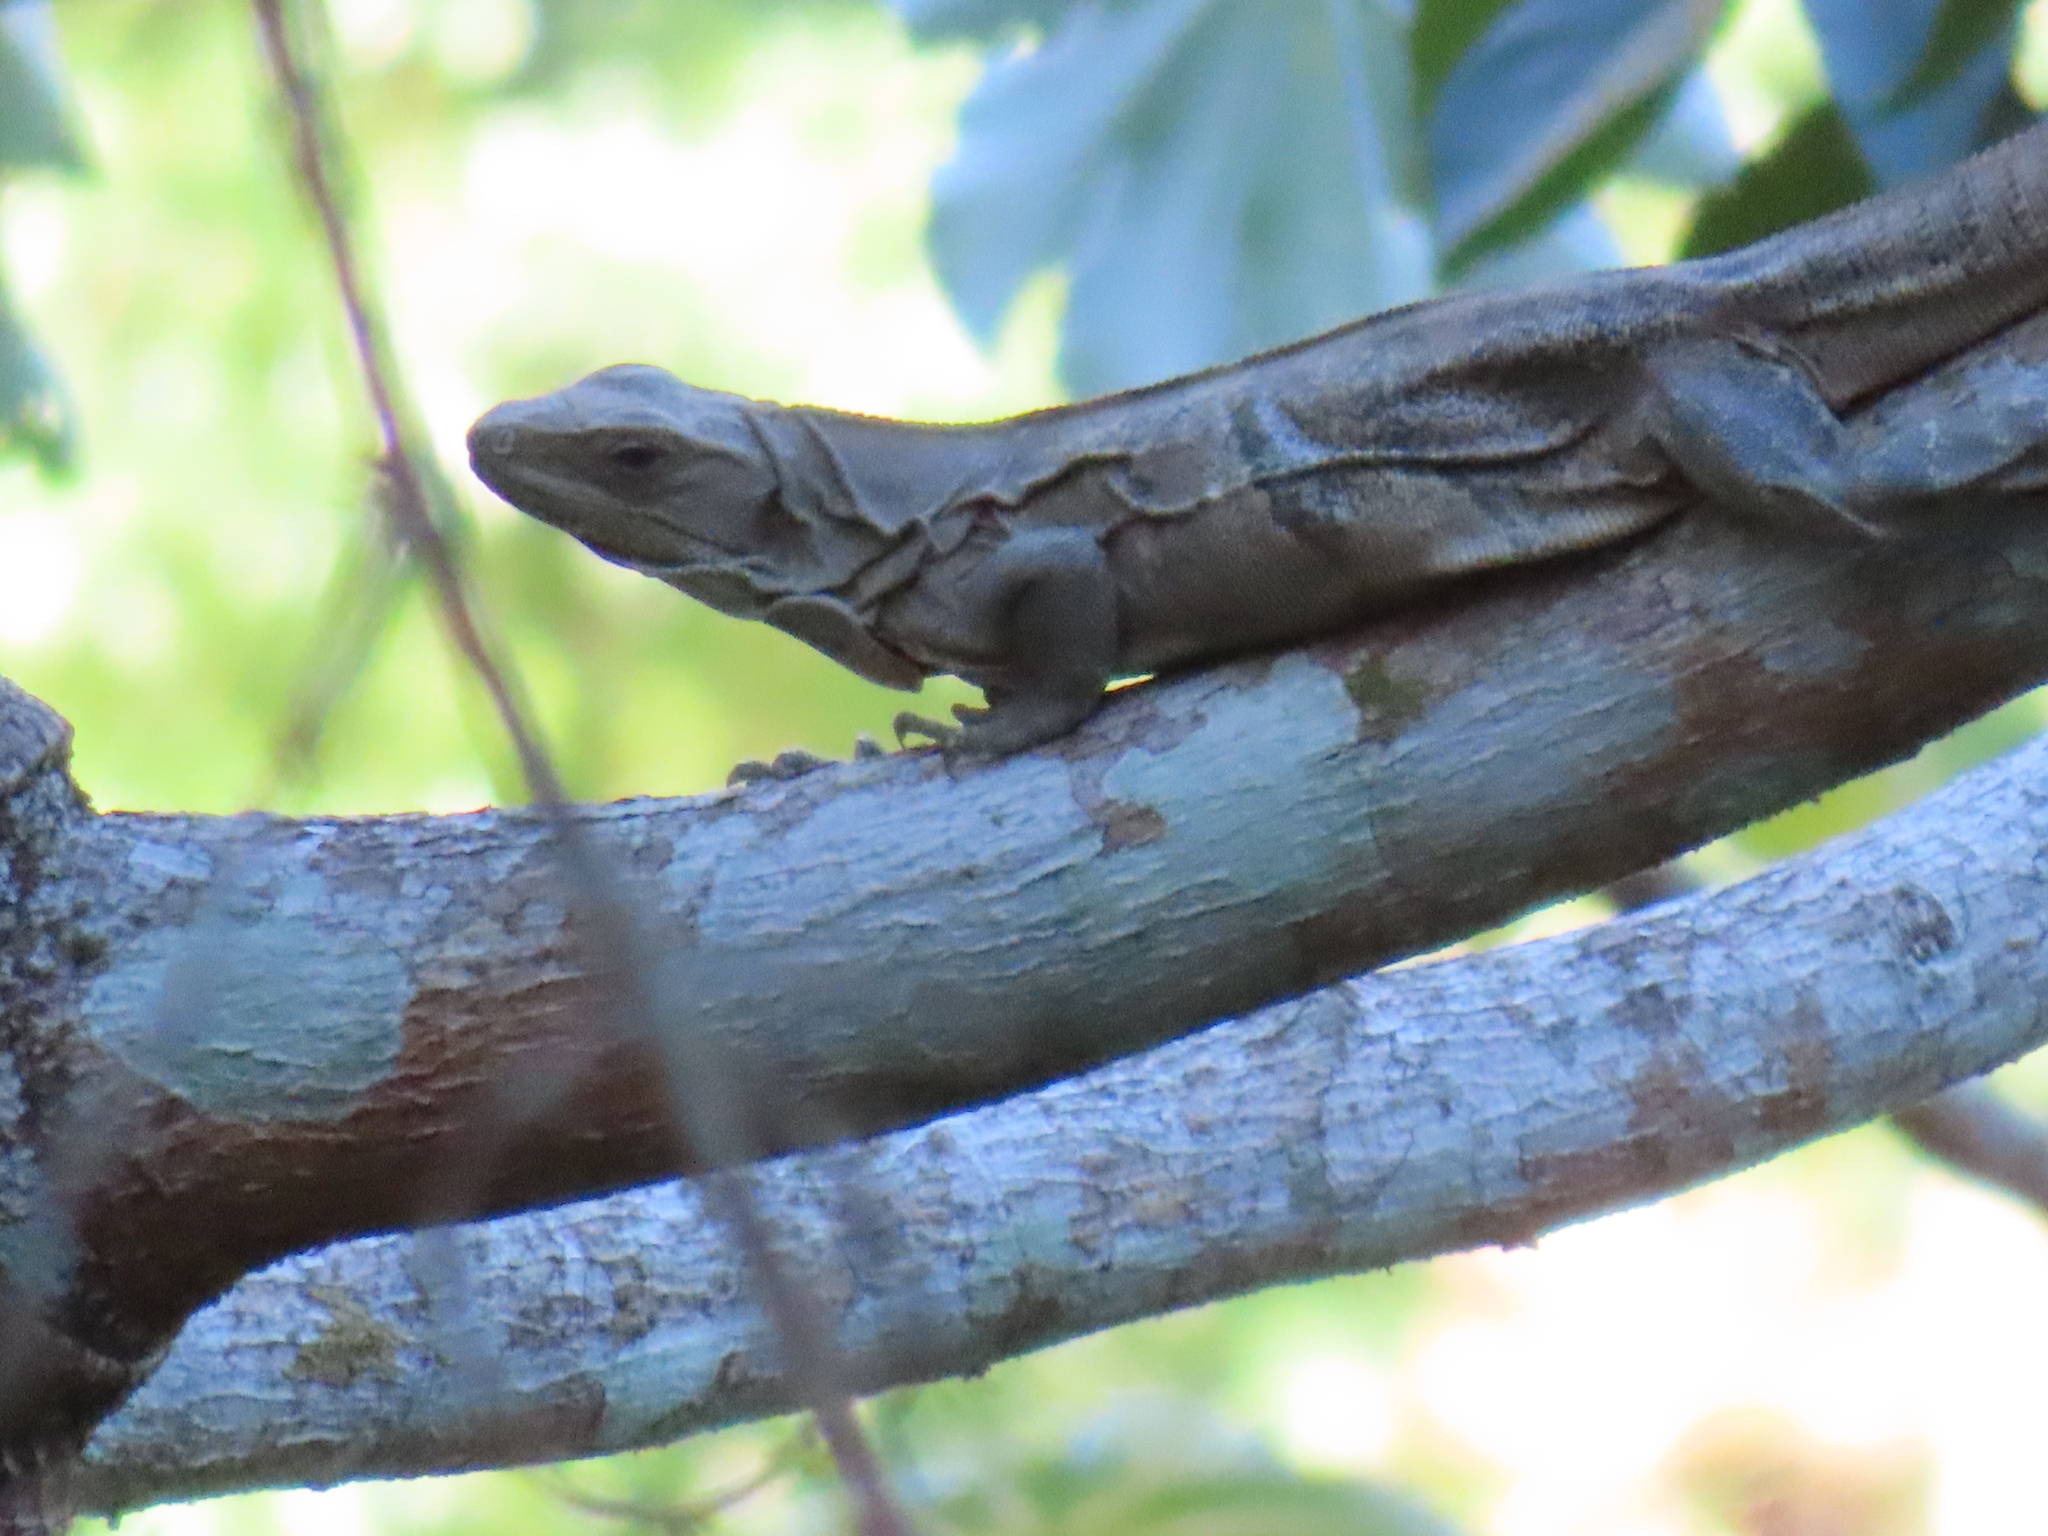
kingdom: Animalia
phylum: Chordata
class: Squamata
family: Iguanidae
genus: Ctenosaura
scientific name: Ctenosaura similis
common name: Black spiny-tailed iguana
